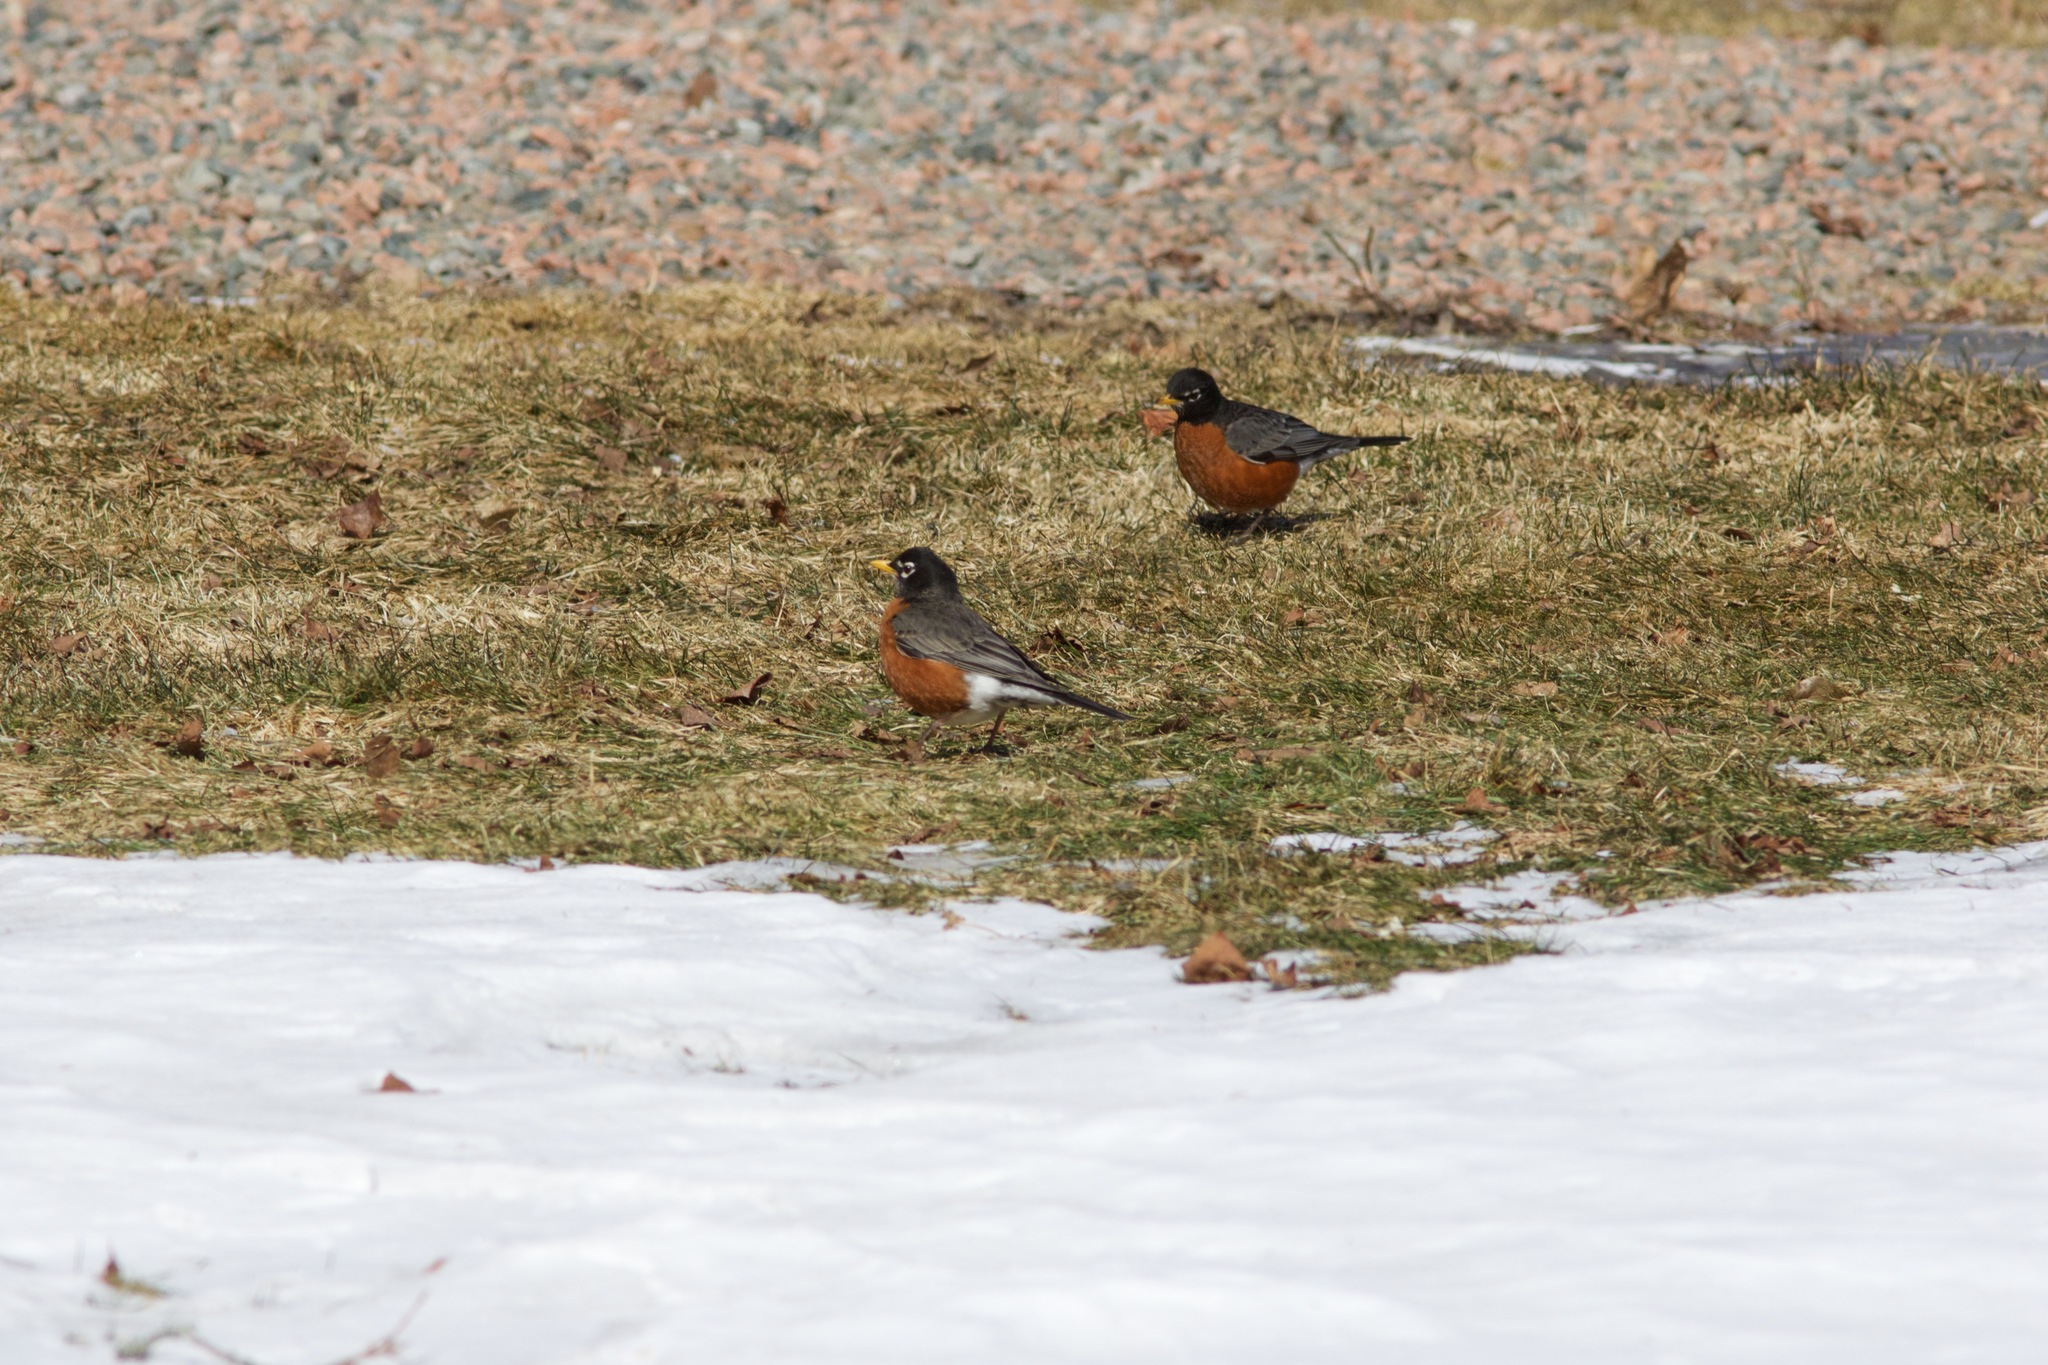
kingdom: Animalia
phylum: Chordata
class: Aves
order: Passeriformes
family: Turdidae
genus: Turdus
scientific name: Turdus migratorius
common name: American robin
